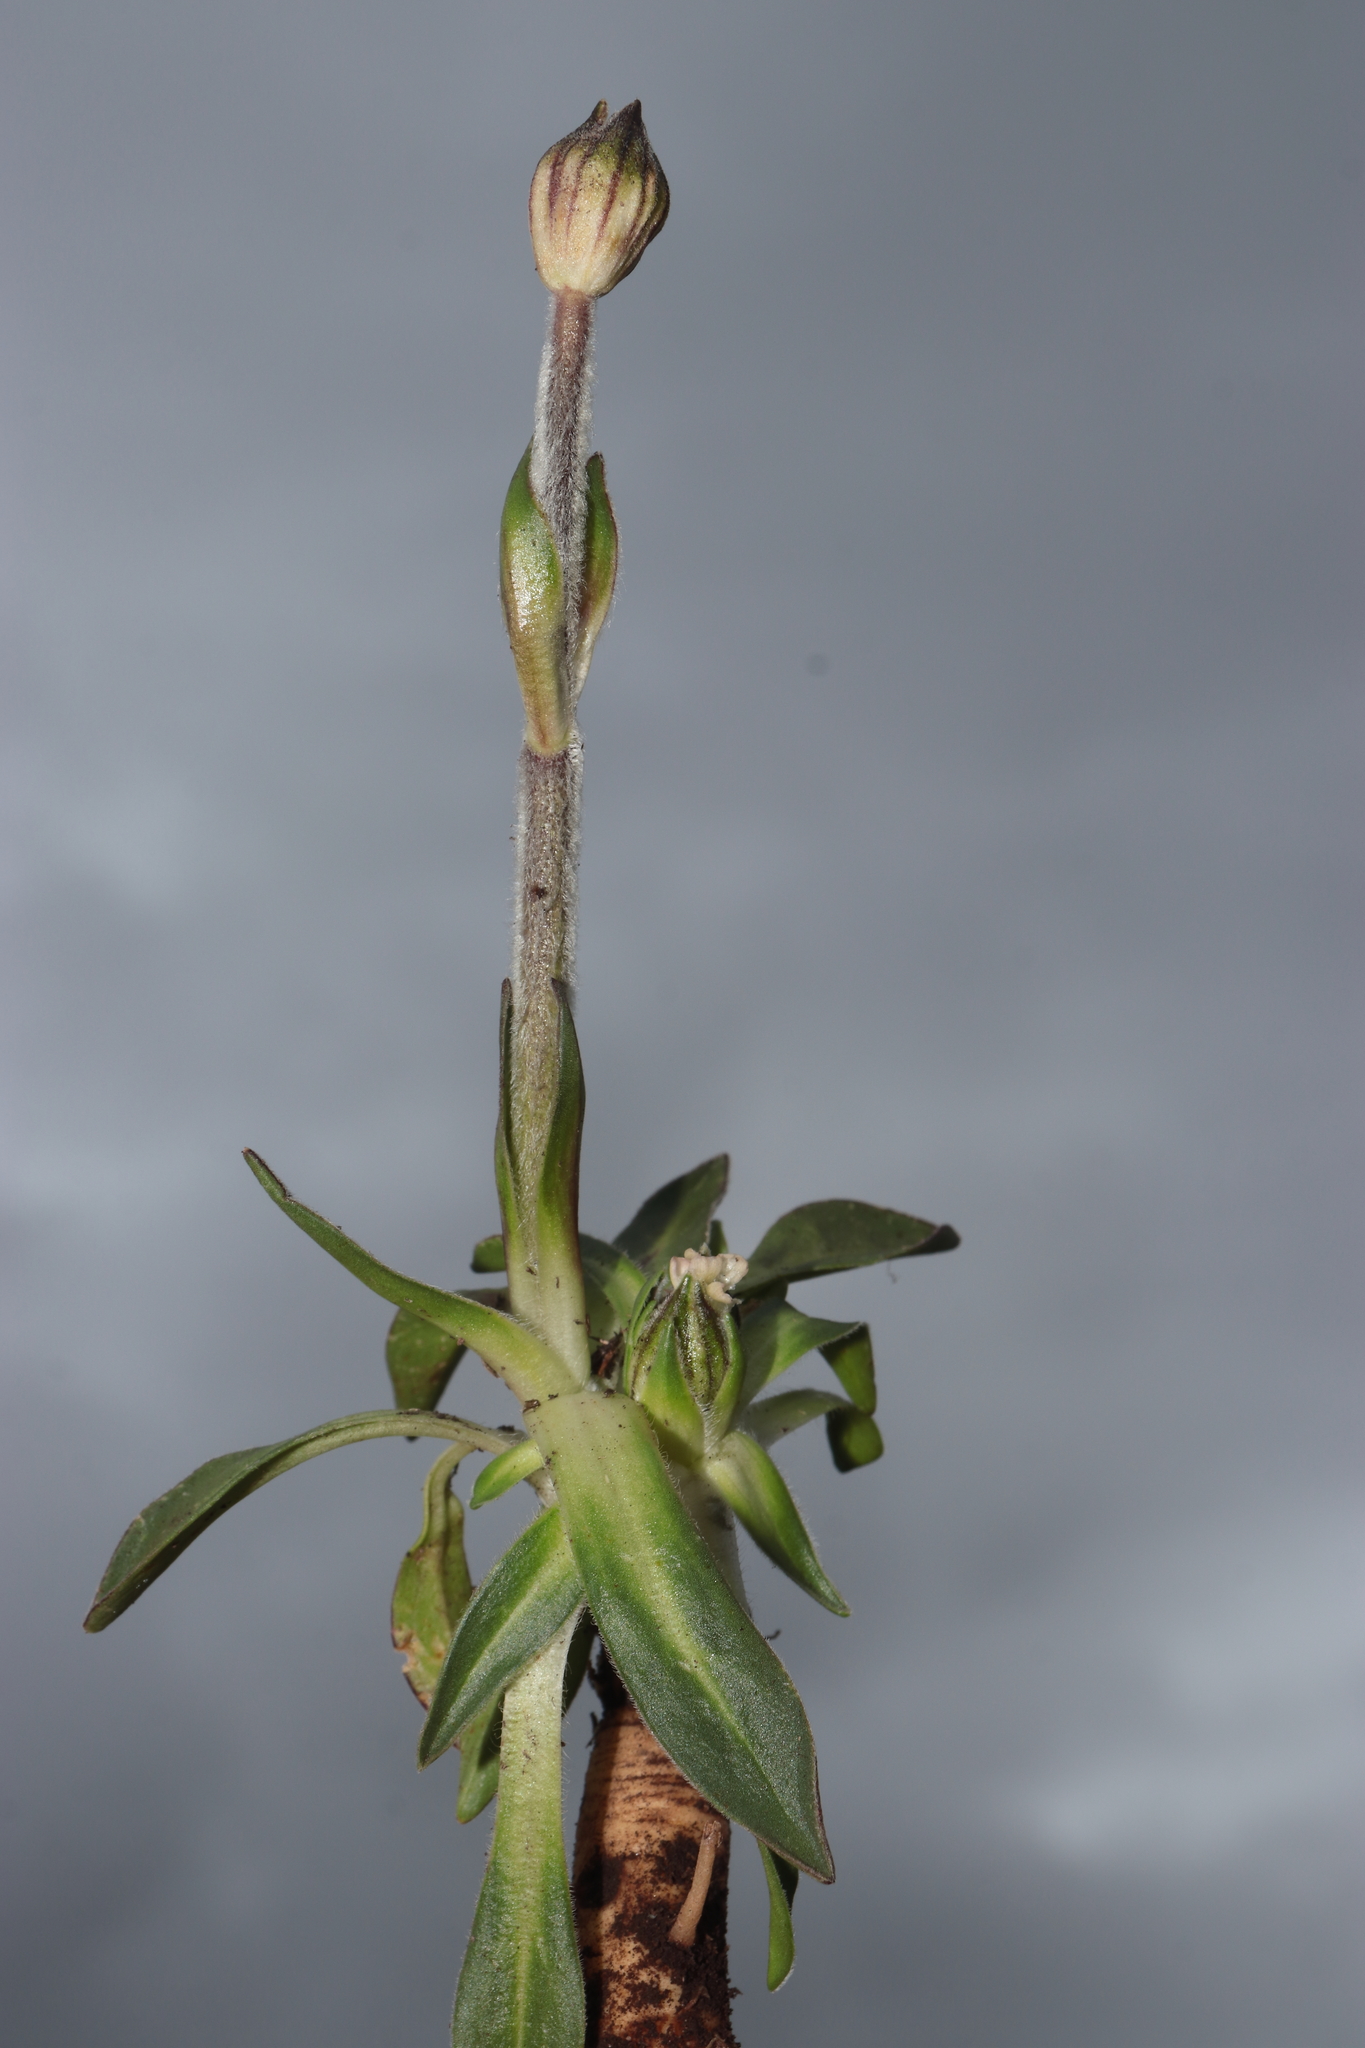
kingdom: Plantae
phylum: Tracheophyta
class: Magnoliopsida
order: Caryophyllales
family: Caryophyllaceae
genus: Silene
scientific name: Silene thysanodes
